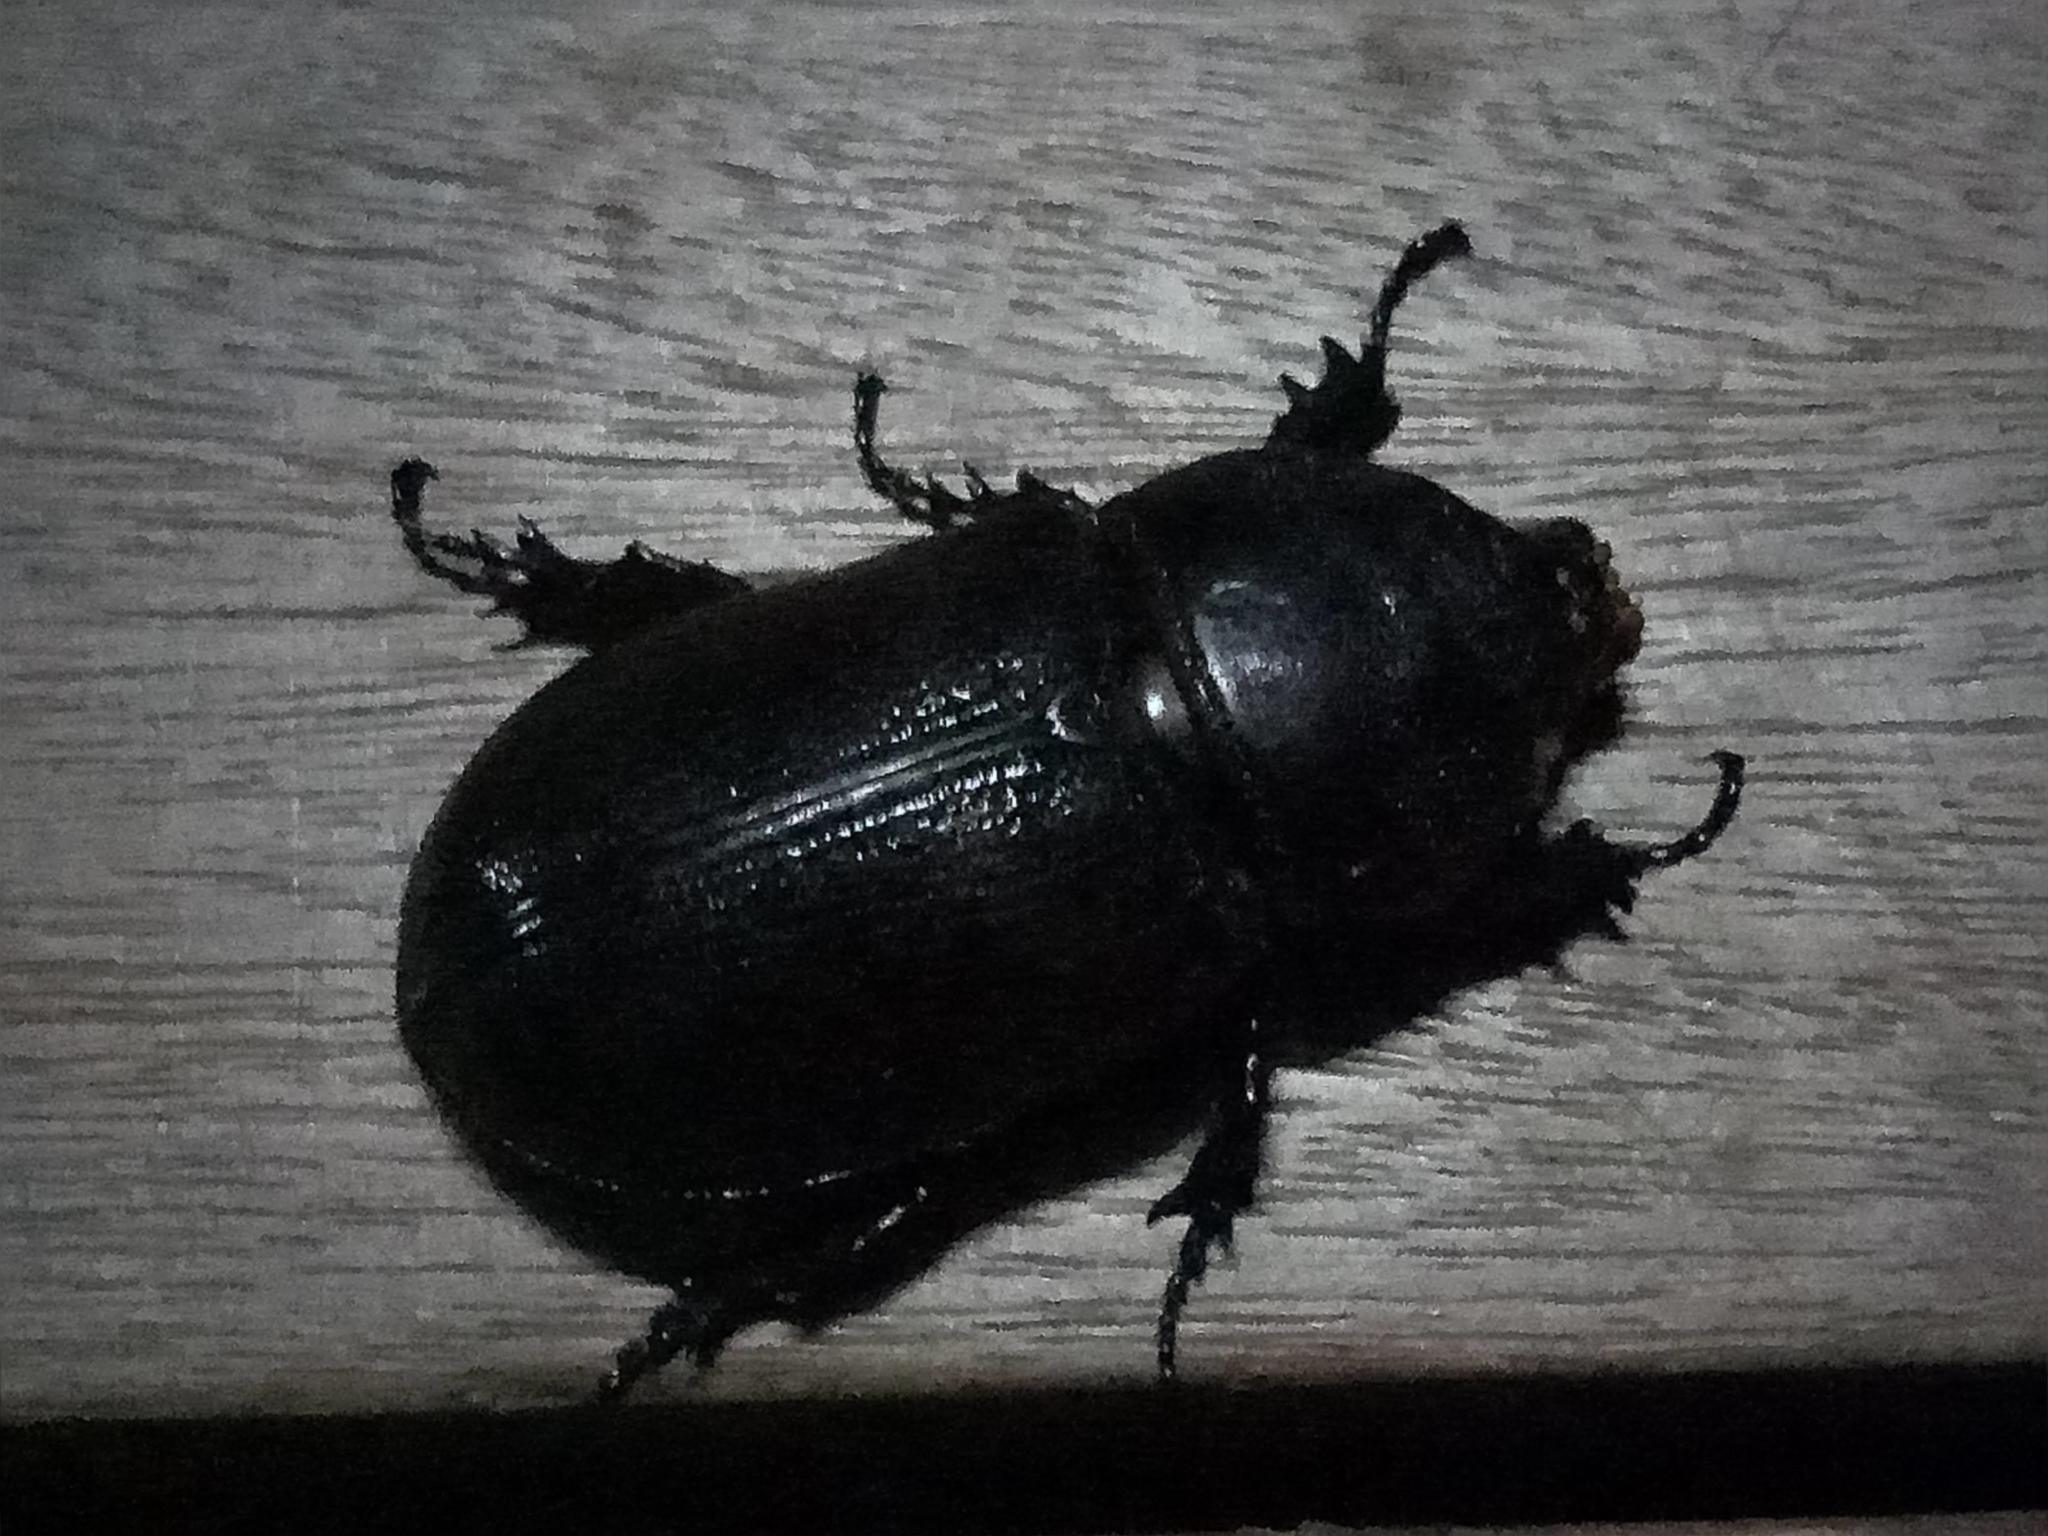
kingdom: Animalia
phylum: Arthropoda
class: Insecta
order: Coleoptera
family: Scarabaeidae
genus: Oryctes
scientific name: Oryctes rhinoceros
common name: Coconut rhinoceros beetle
